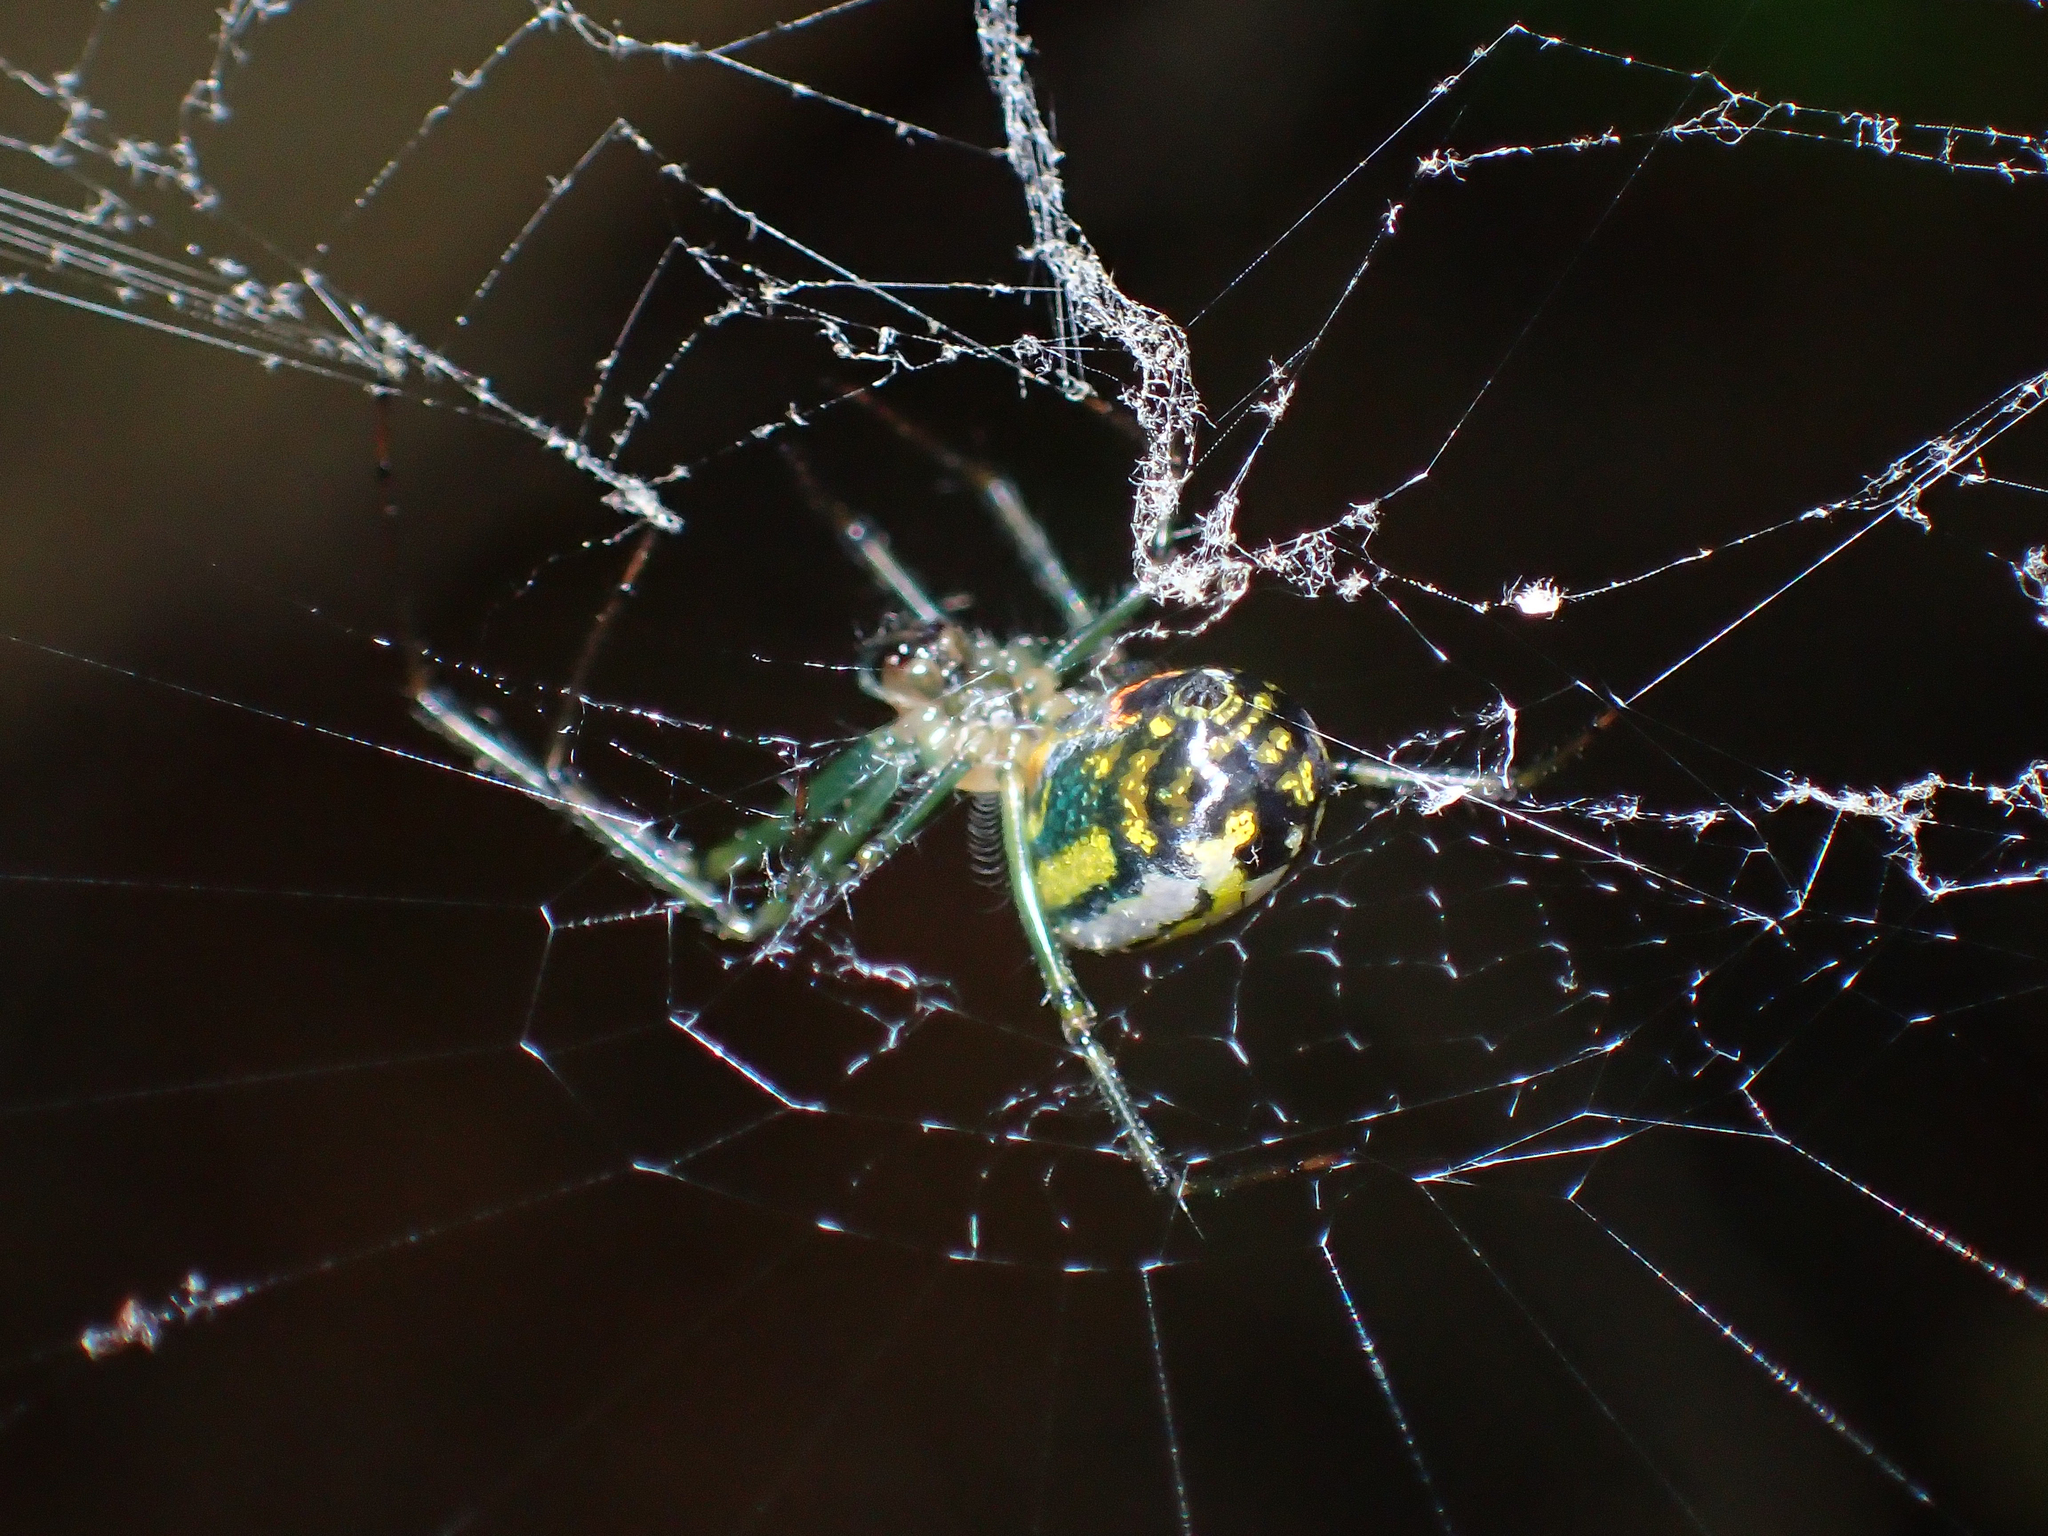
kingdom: Animalia
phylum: Arthropoda
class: Arachnida
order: Araneae
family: Tetragnathidae
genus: Leucauge
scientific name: Leucauge venusta
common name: Longjawed orb weavers
